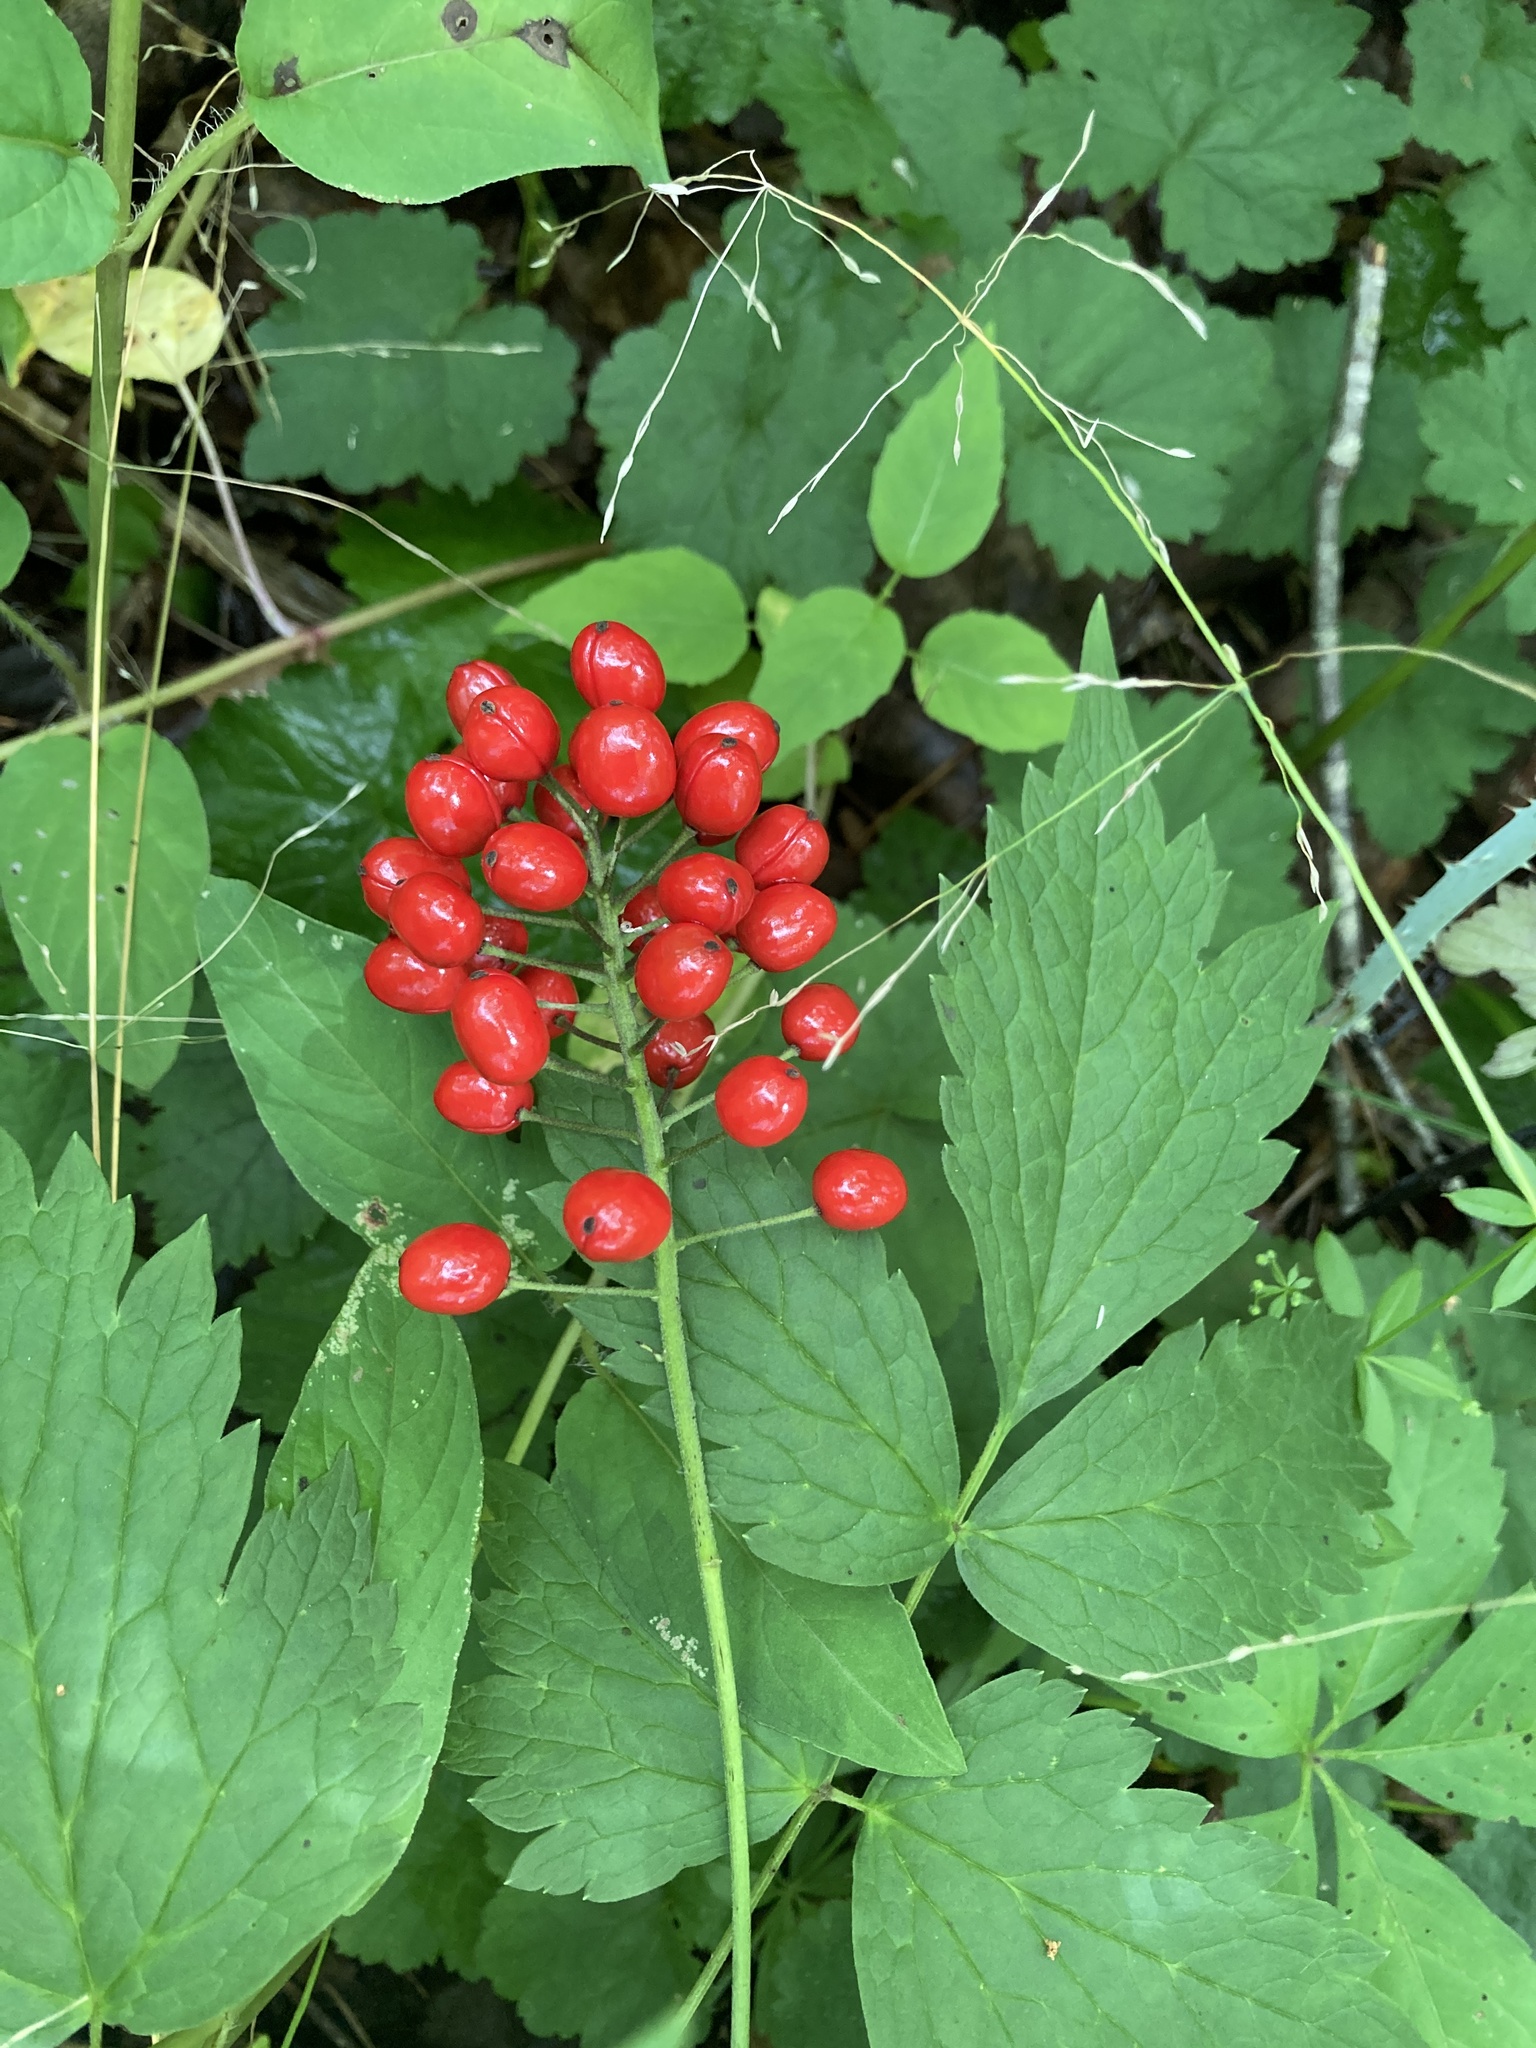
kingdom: Plantae
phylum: Tracheophyta
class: Magnoliopsida
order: Ranunculales
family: Ranunculaceae
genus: Actaea
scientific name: Actaea rubra
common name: Red baneberry
